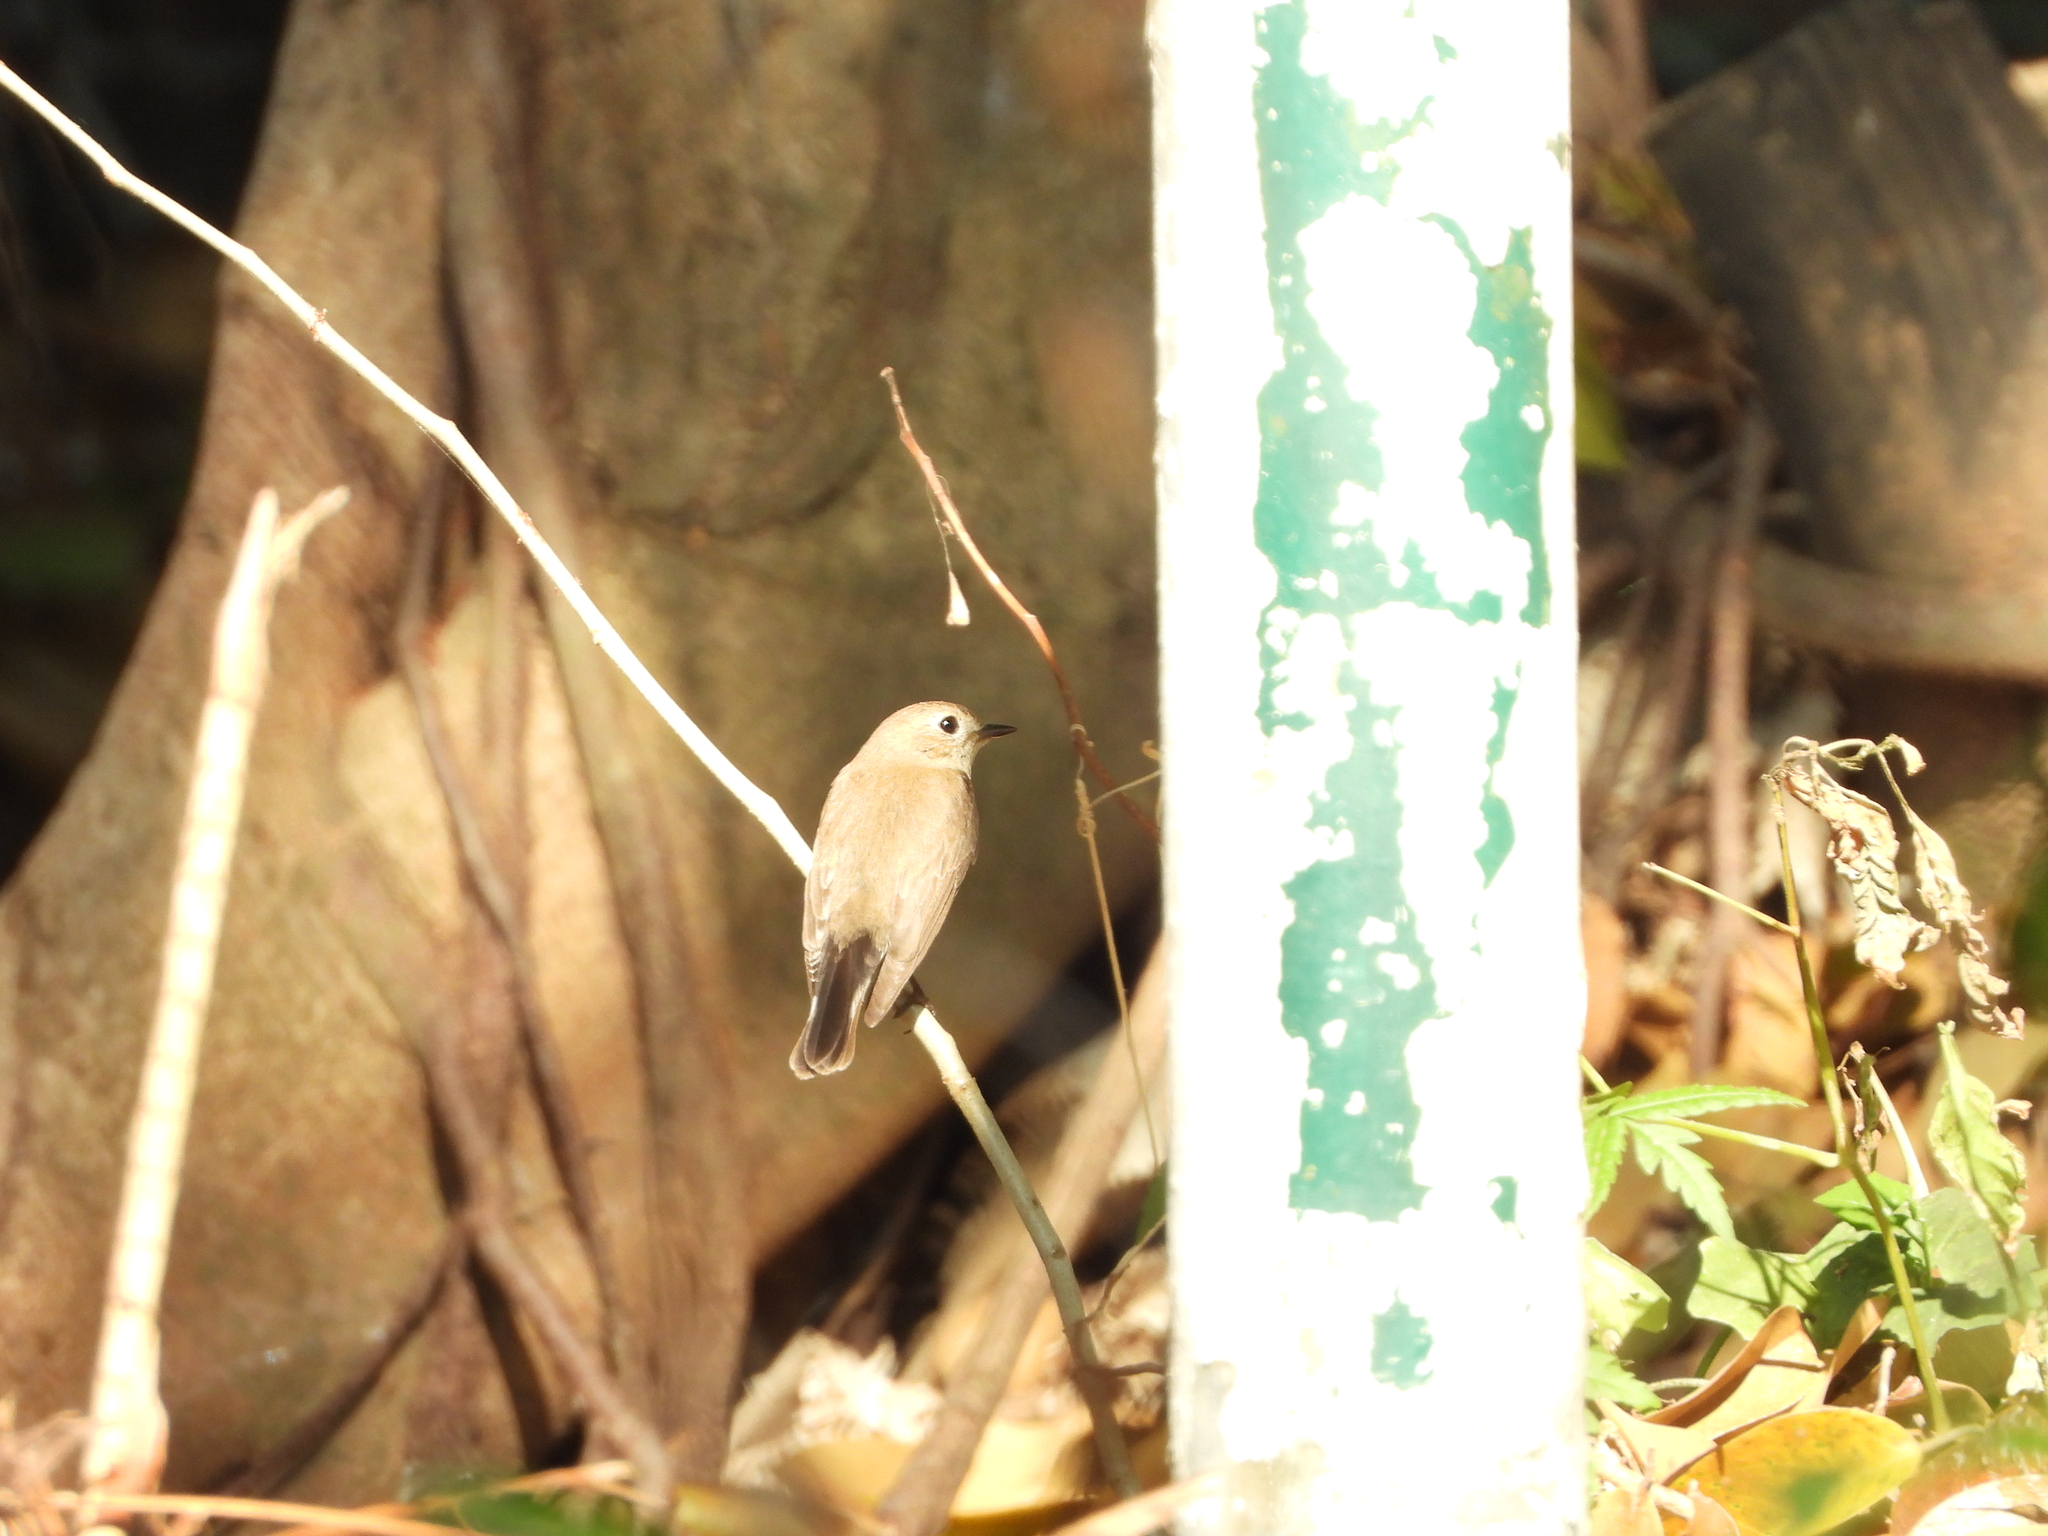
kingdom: Animalia
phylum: Chordata
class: Aves
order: Passeriformes
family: Muscicapidae
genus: Ficedula
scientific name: Ficedula albicilla
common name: Taiga flycatcher
